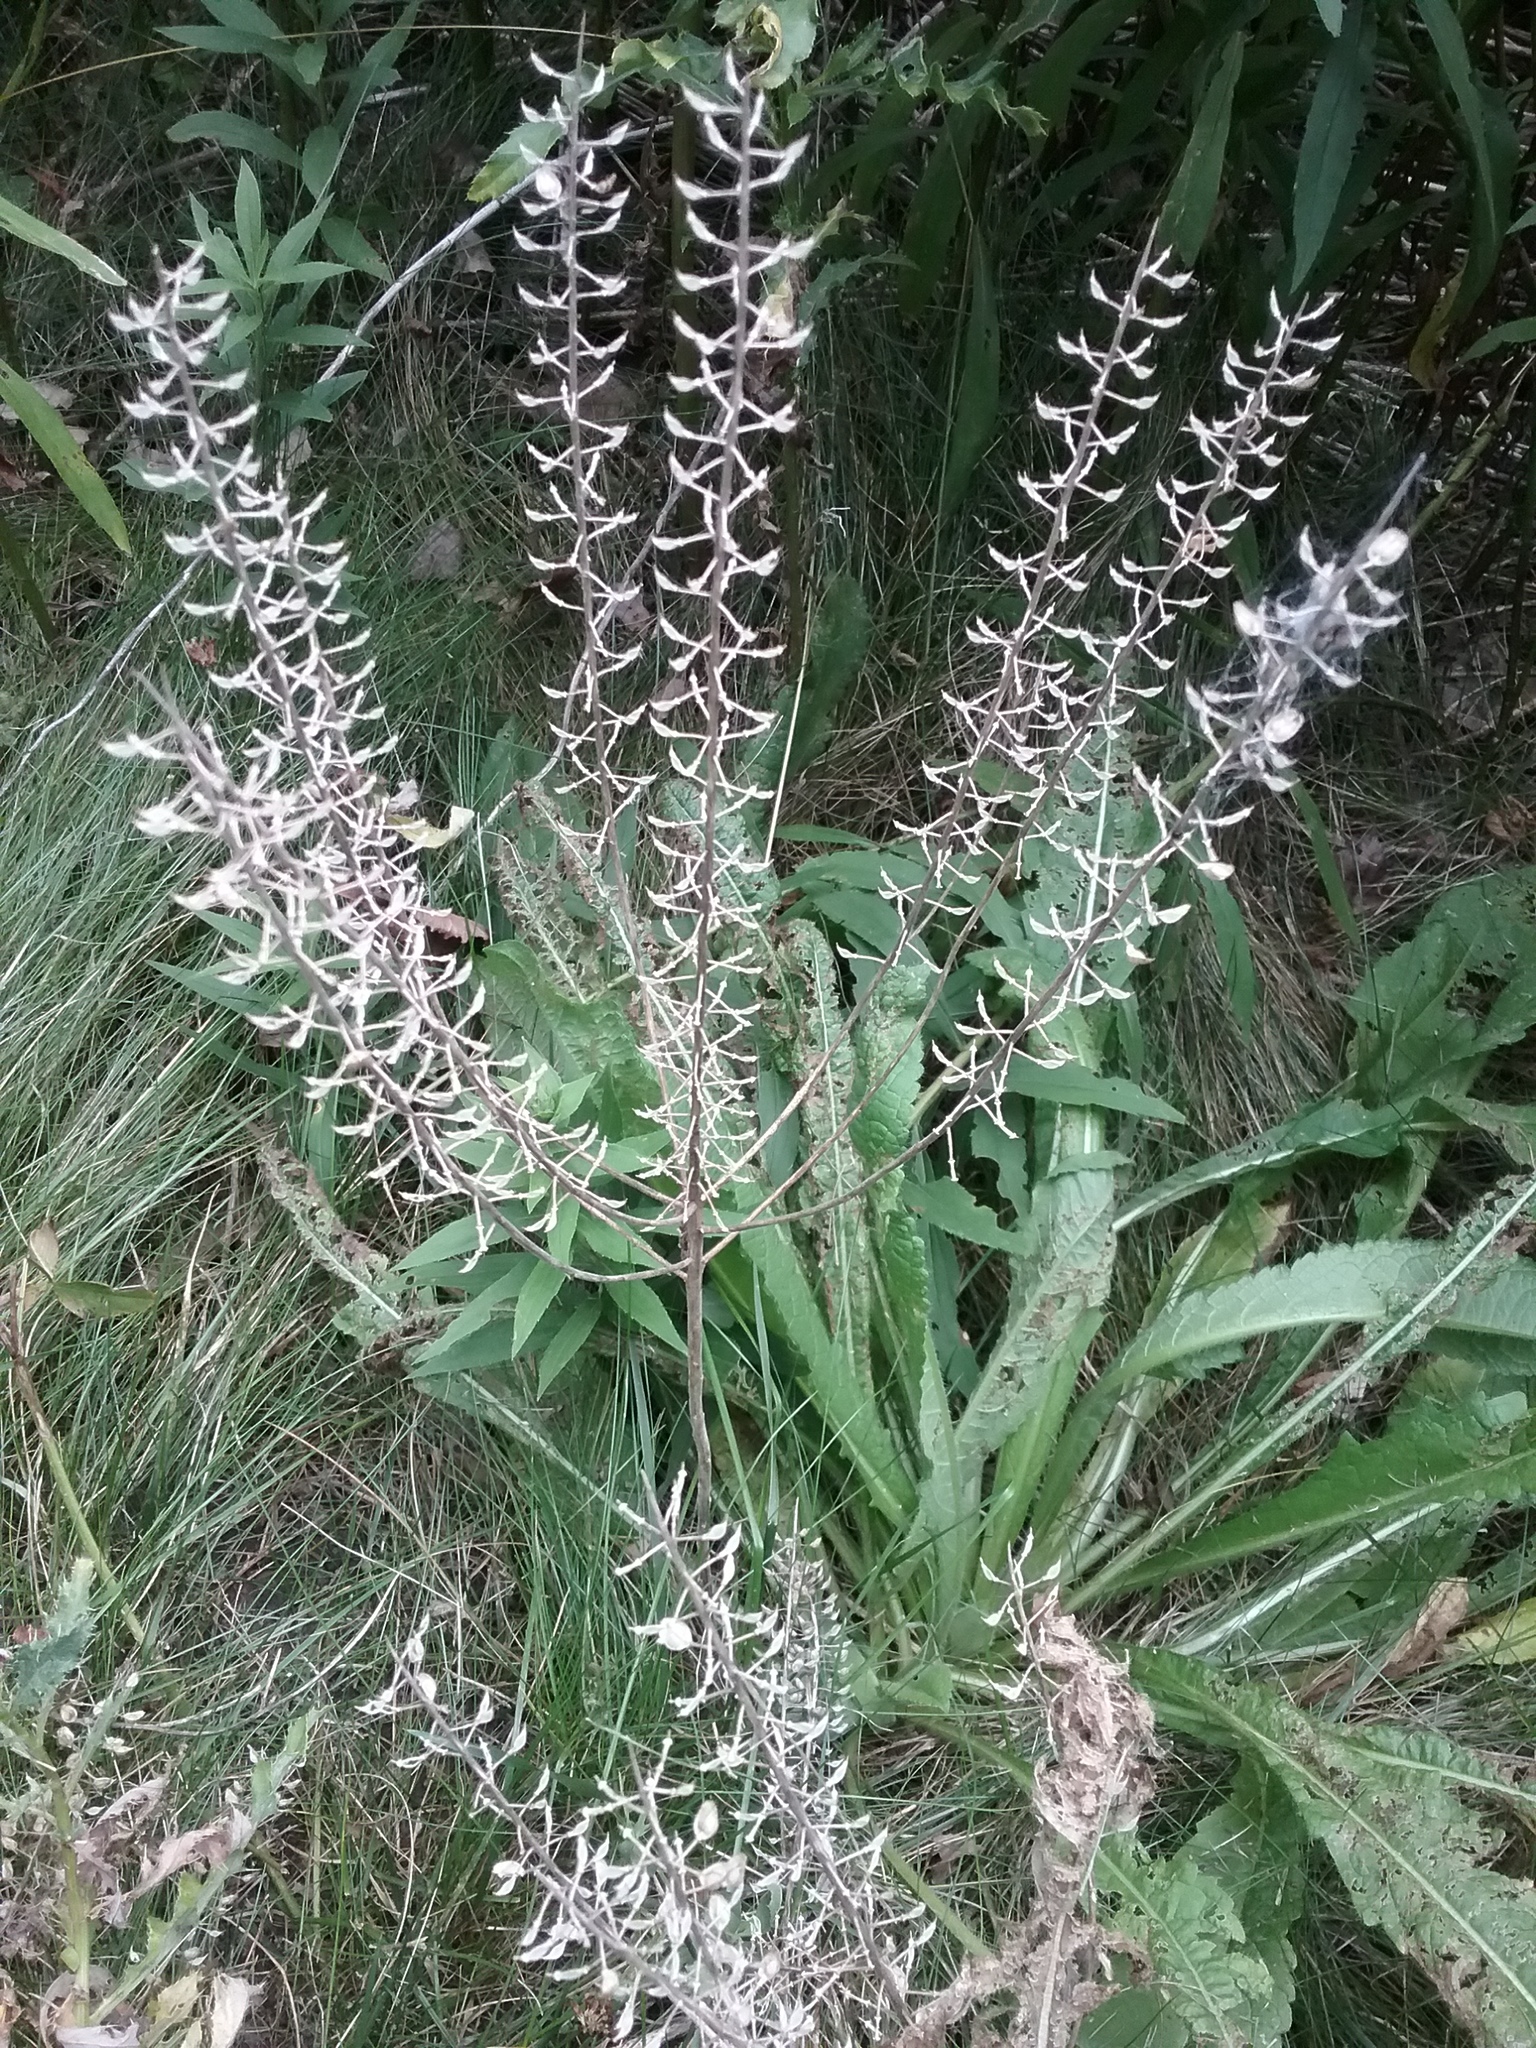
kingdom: Plantae
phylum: Tracheophyta
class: Magnoliopsida
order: Brassicales
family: Brassicaceae
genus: Lepidium
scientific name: Lepidium campestre
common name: Field pepperwort
